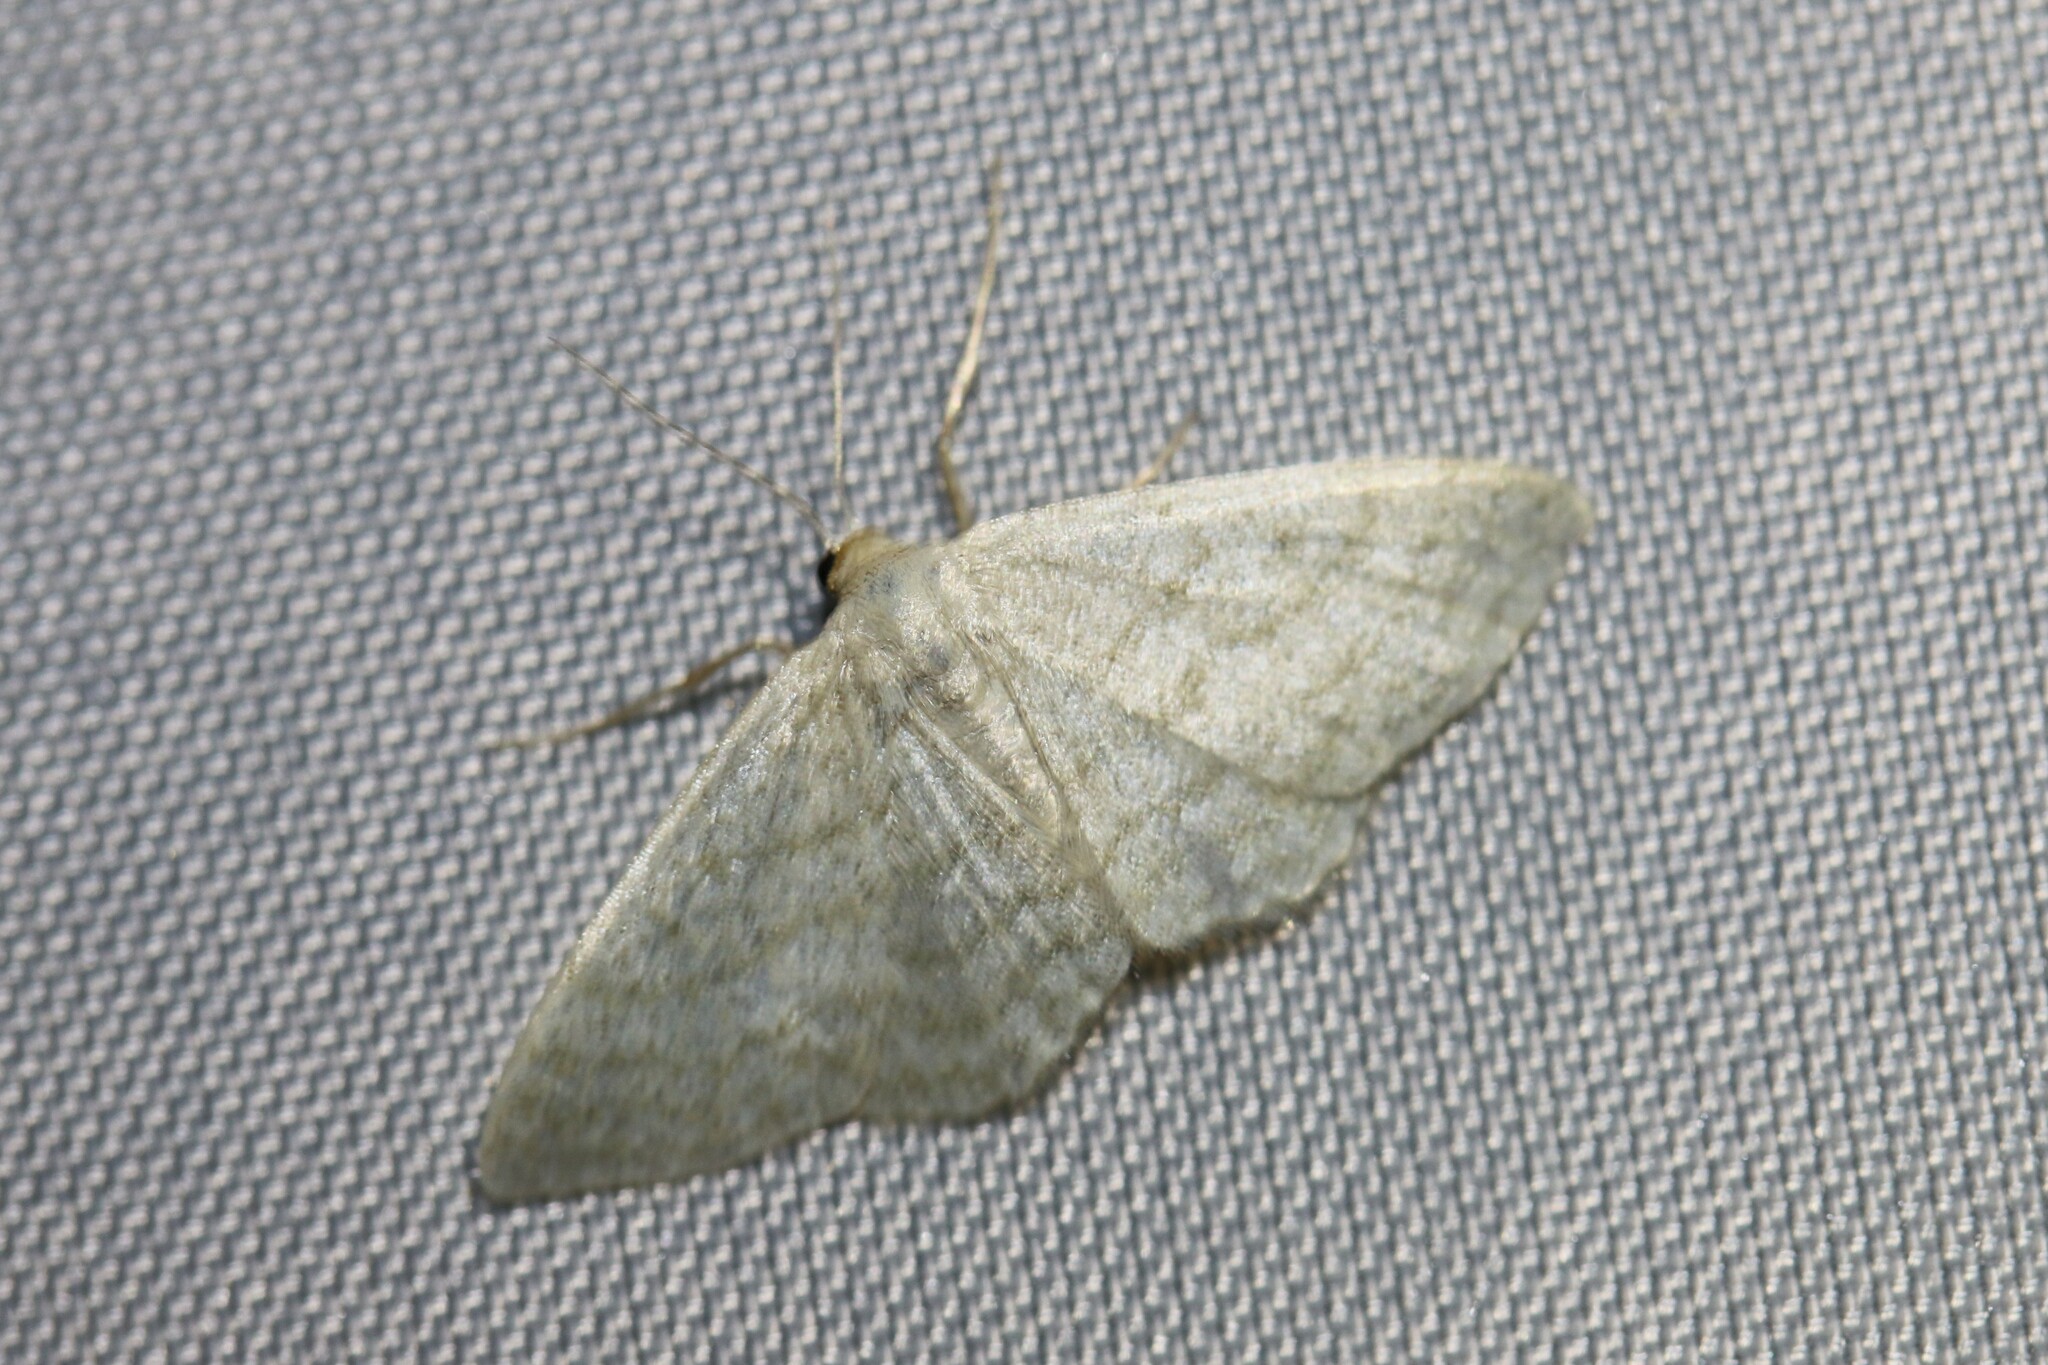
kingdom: Animalia
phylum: Arthropoda
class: Insecta
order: Lepidoptera
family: Geometridae
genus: Idaea
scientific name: Idaea subsericeata
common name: Satin wave
